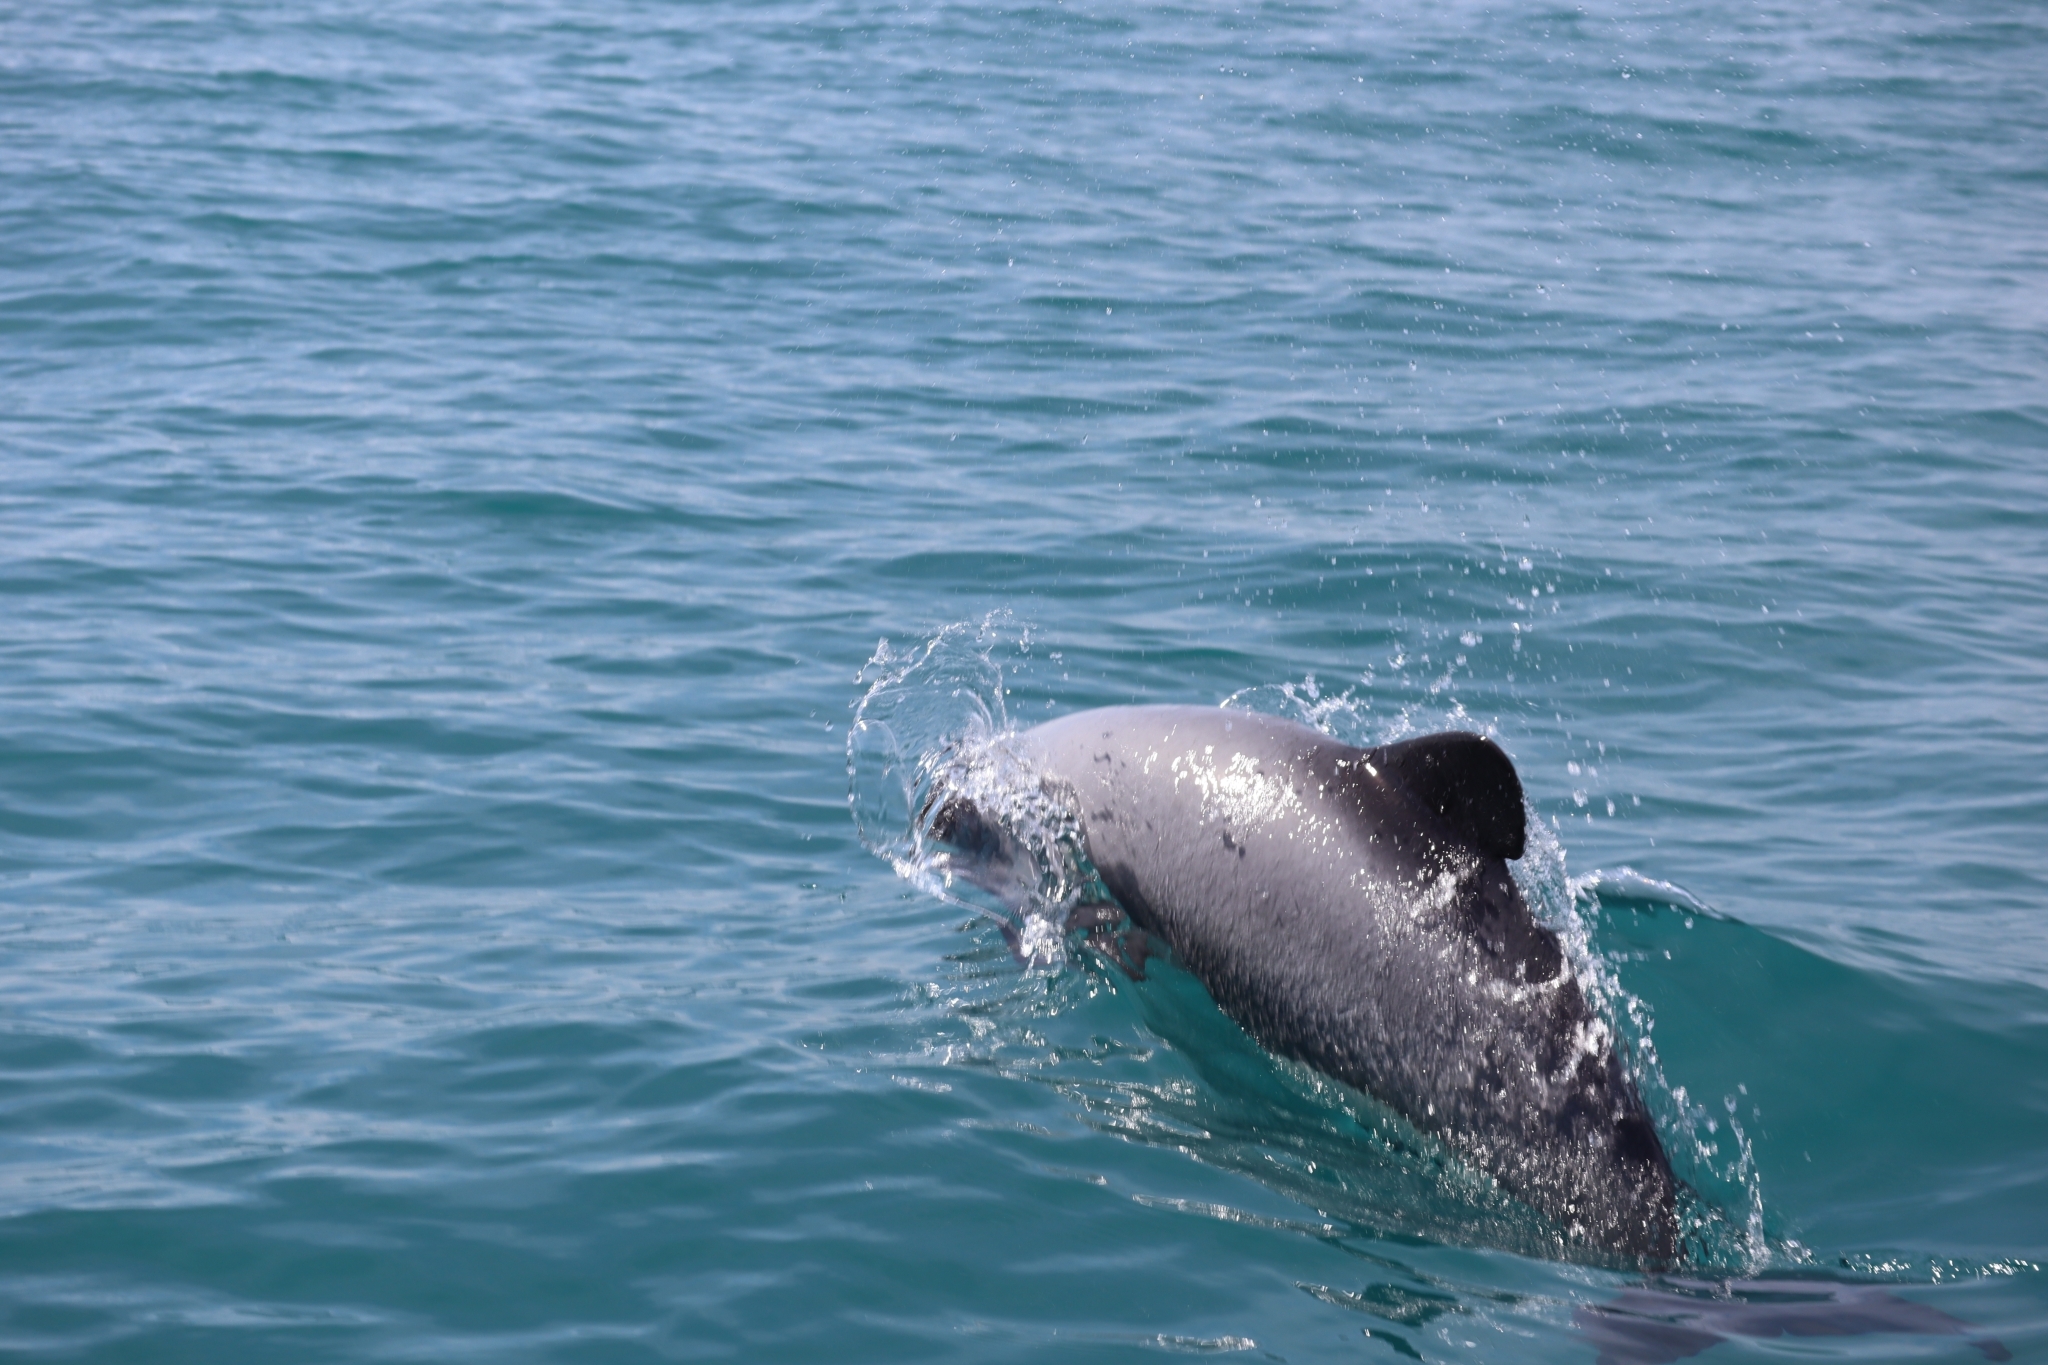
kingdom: Animalia
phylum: Chordata
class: Mammalia
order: Cetacea
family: Delphinidae
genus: Cephalorhynchus
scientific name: Cephalorhynchus hectori
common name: Hector's dolphin
